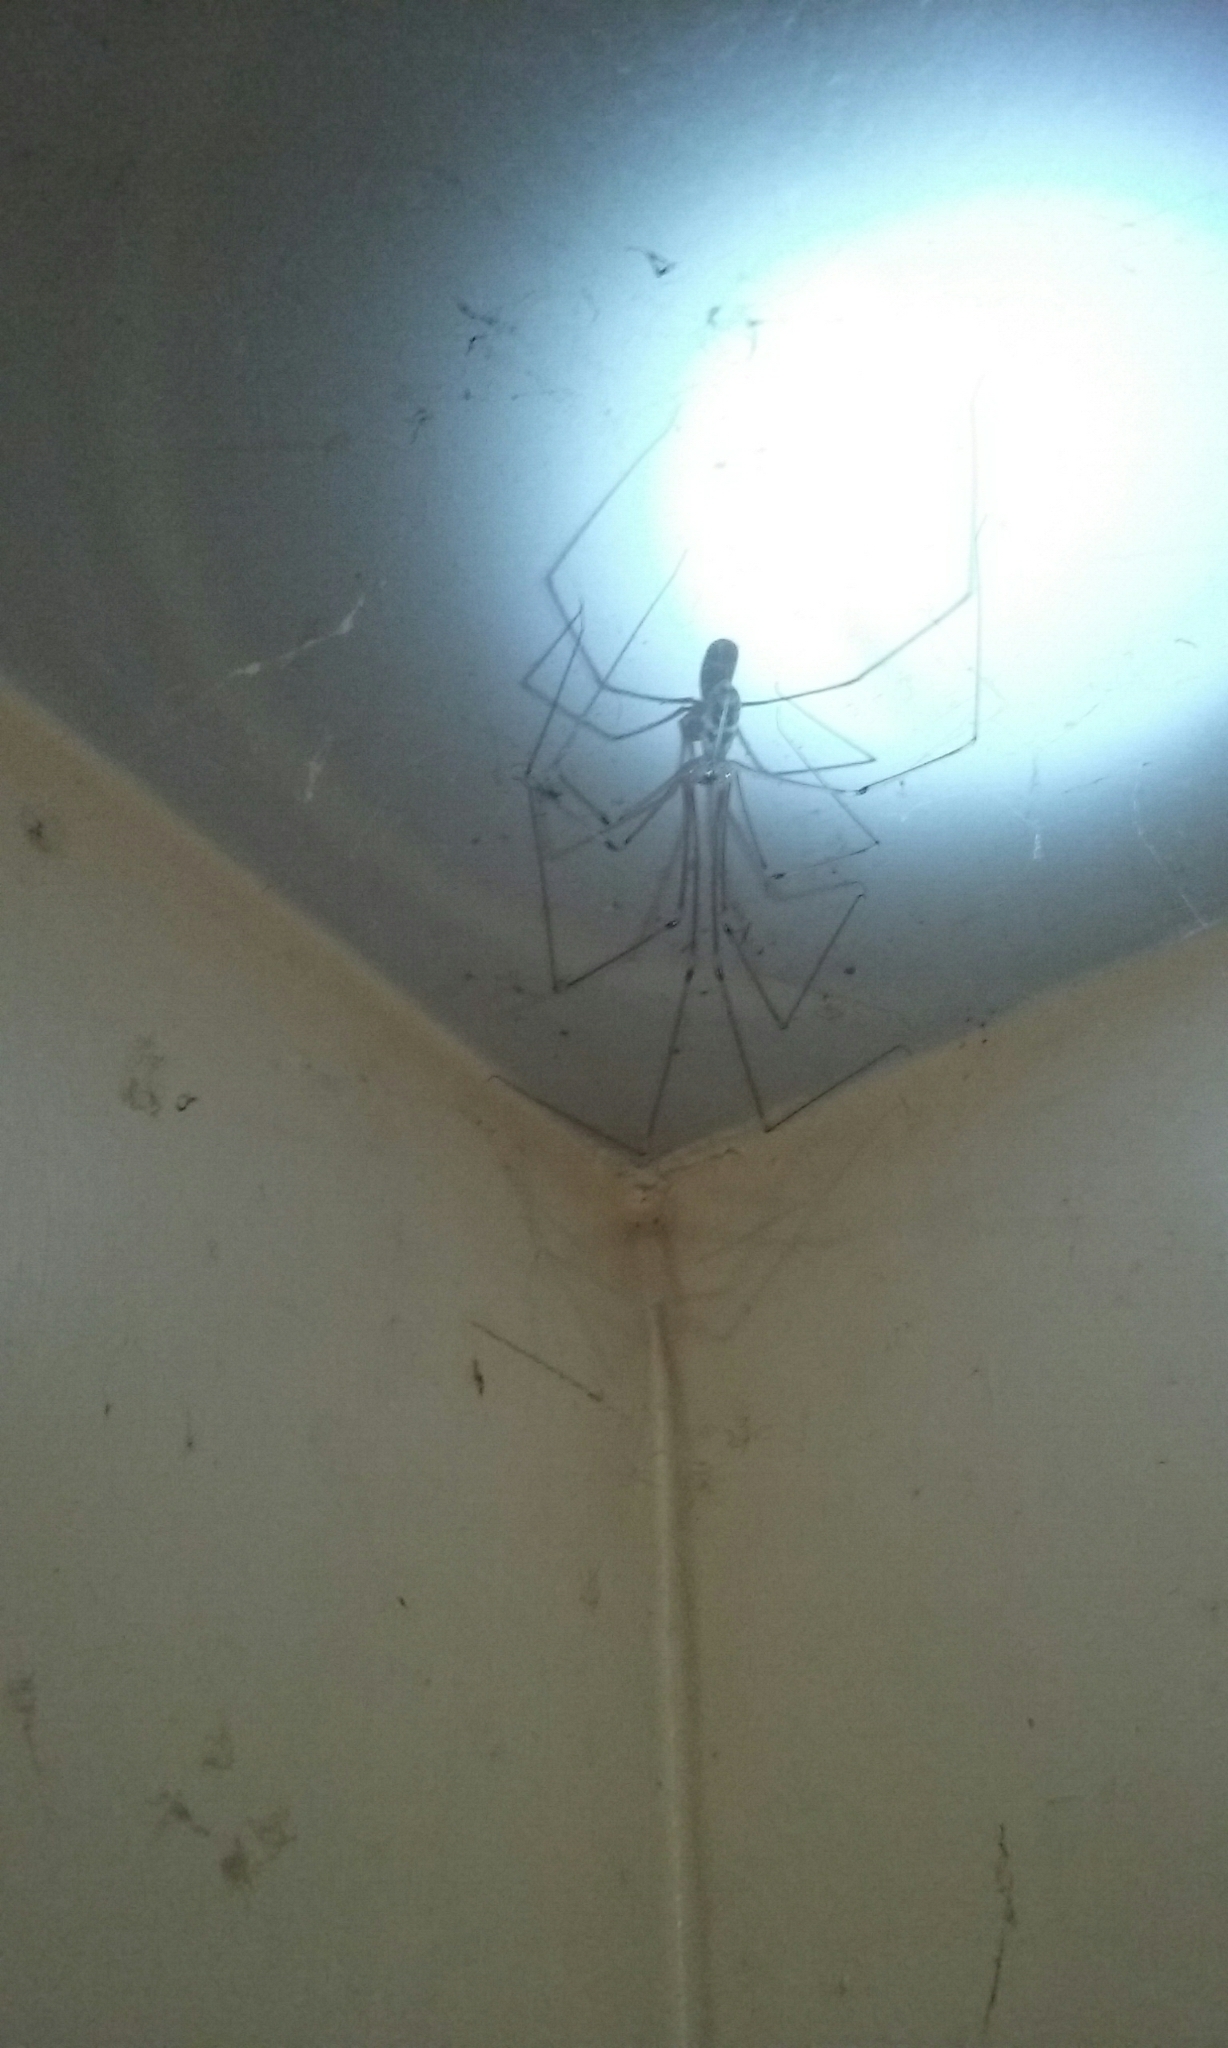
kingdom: Animalia
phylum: Arthropoda
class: Arachnida
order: Araneae
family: Pholcidae
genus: Pholcus
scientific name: Pholcus phalangioides
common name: Longbodied cellar spider
